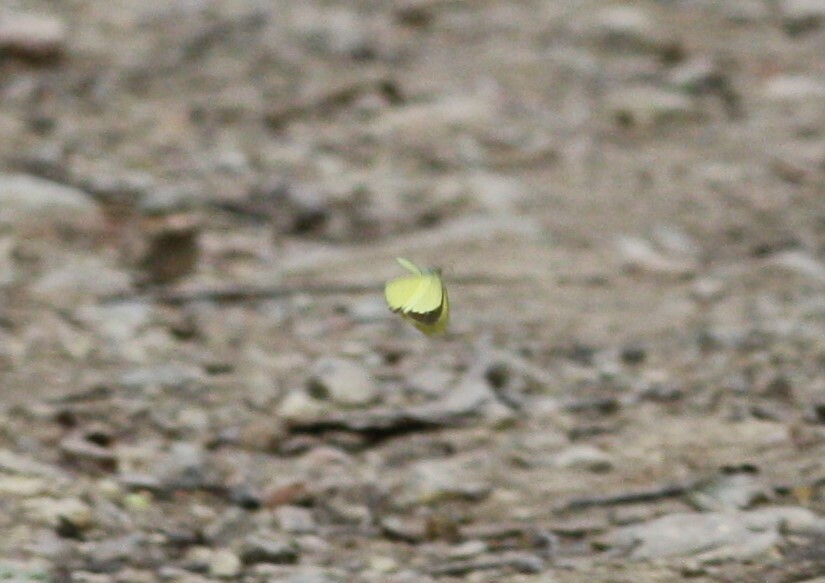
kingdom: Animalia
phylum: Arthropoda
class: Insecta
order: Lepidoptera
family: Pieridae
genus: Eurema
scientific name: Eurema brigitta
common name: Small grass yellow
